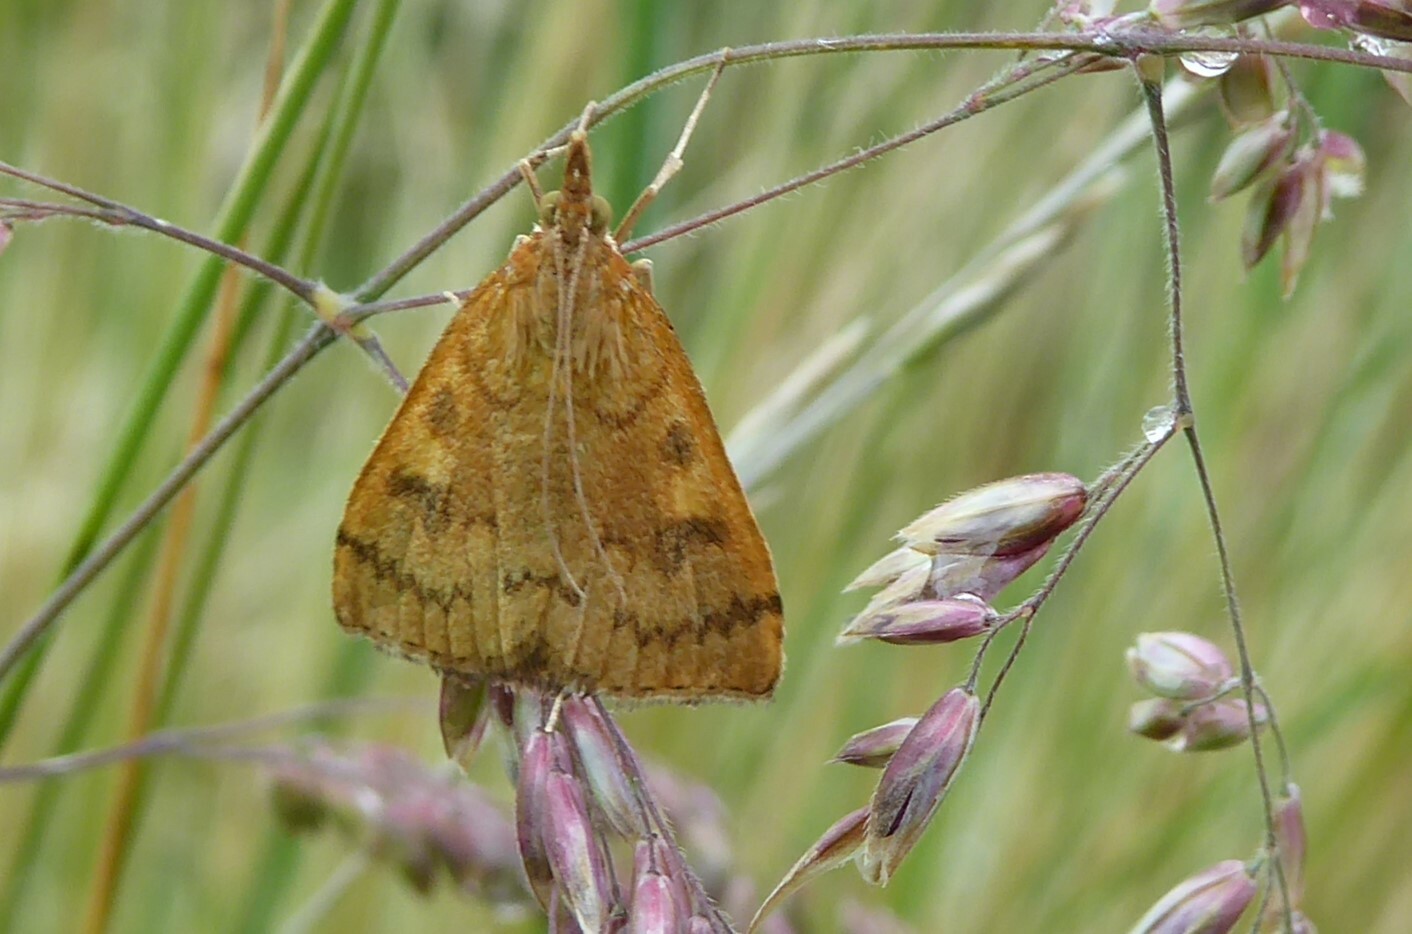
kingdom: Animalia
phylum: Arthropoda
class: Insecta
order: Lepidoptera
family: Crambidae
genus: Udea
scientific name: Udea Mnesictena flavidalis
